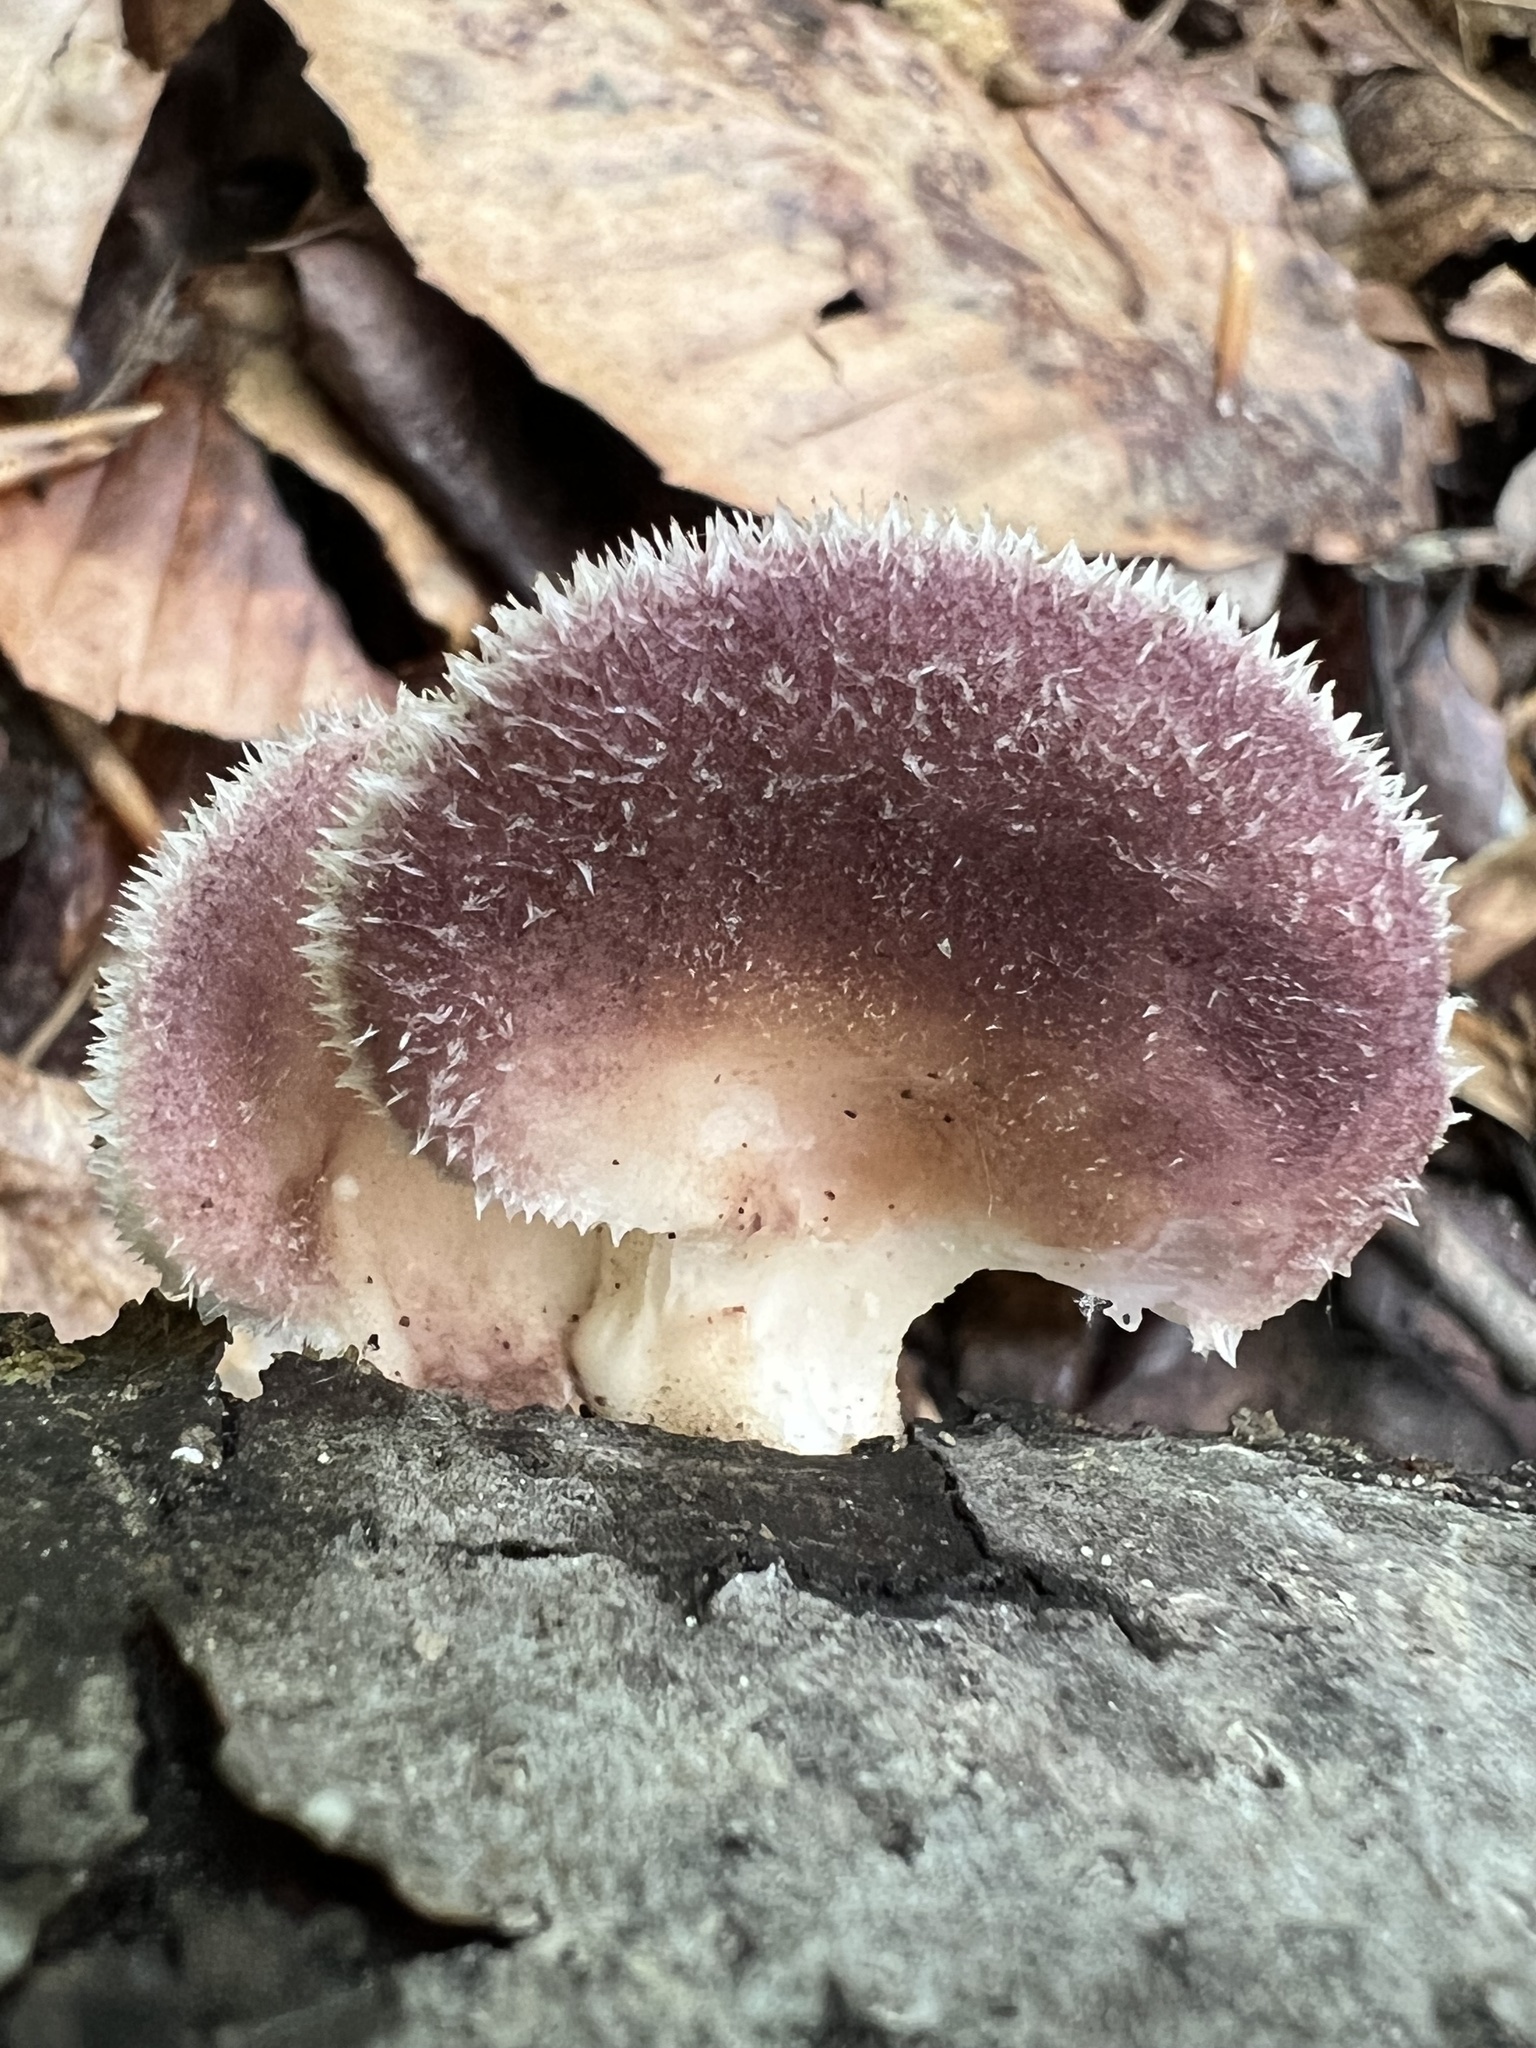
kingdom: Fungi
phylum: Basidiomycota
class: Agaricomycetes
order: Polyporales
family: Panaceae
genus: Panus
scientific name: Panus neostrigosus
